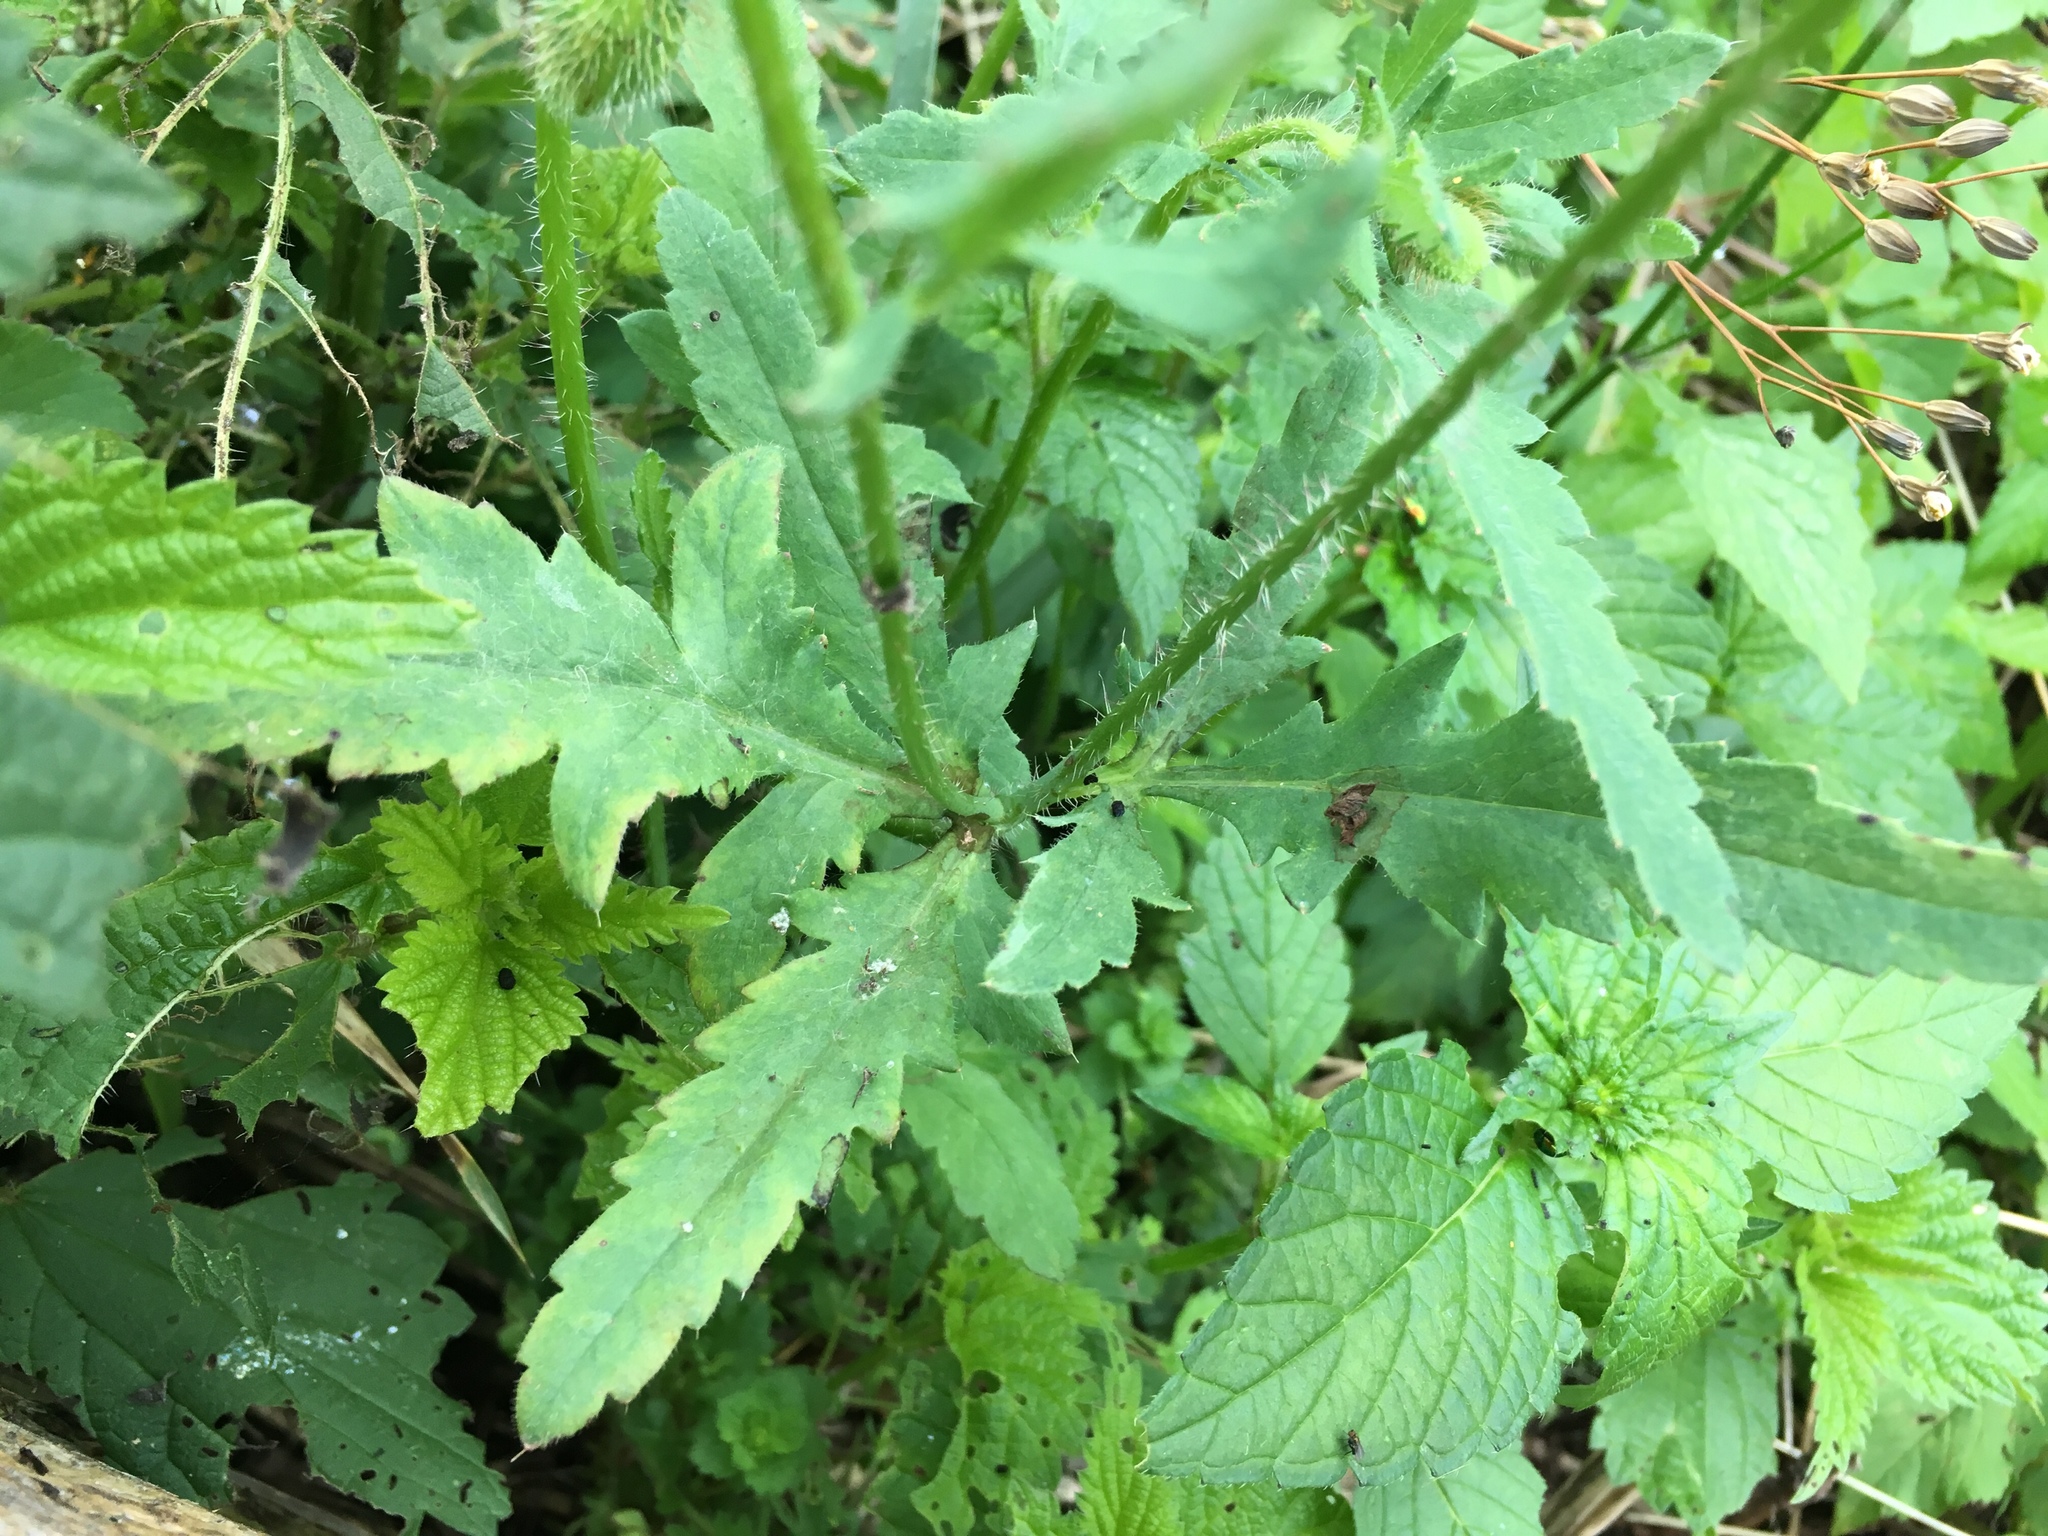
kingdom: Plantae
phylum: Tracheophyta
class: Magnoliopsida
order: Ranunculales
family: Papaveraceae
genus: Papaver
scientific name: Papaver rhoeas
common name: Corn poppy
